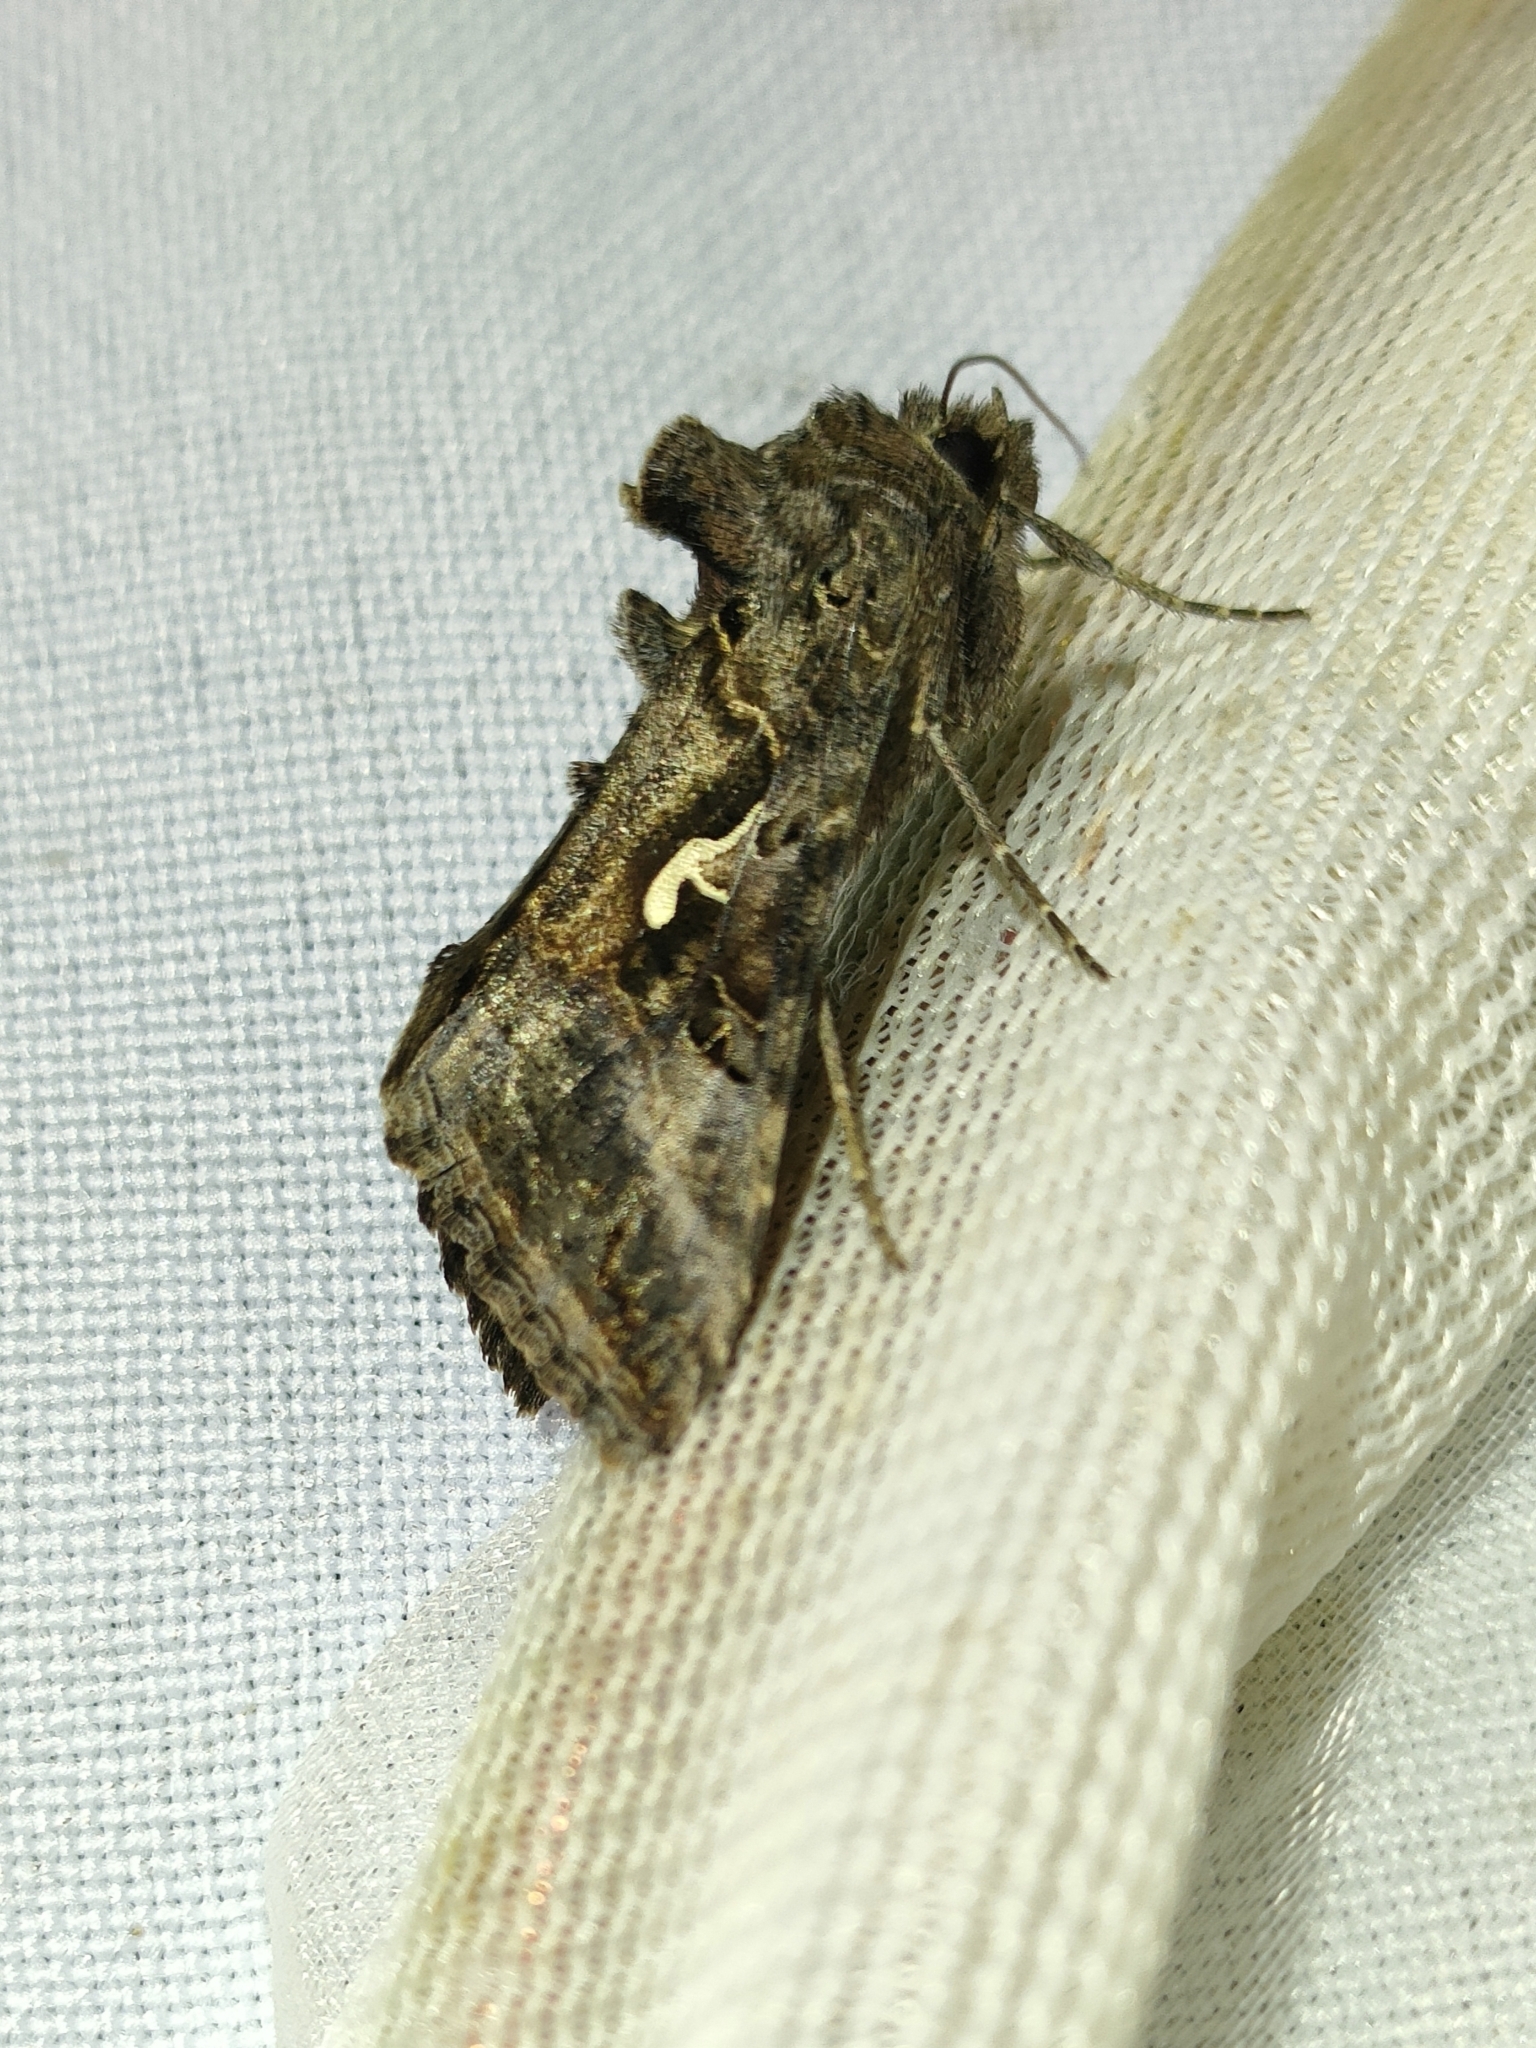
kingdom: Animalia
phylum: Arthropoda
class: Insecta
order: Lepidoptera
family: Noctuidae
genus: Autographa
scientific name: Autographa gamma
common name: Silver y
